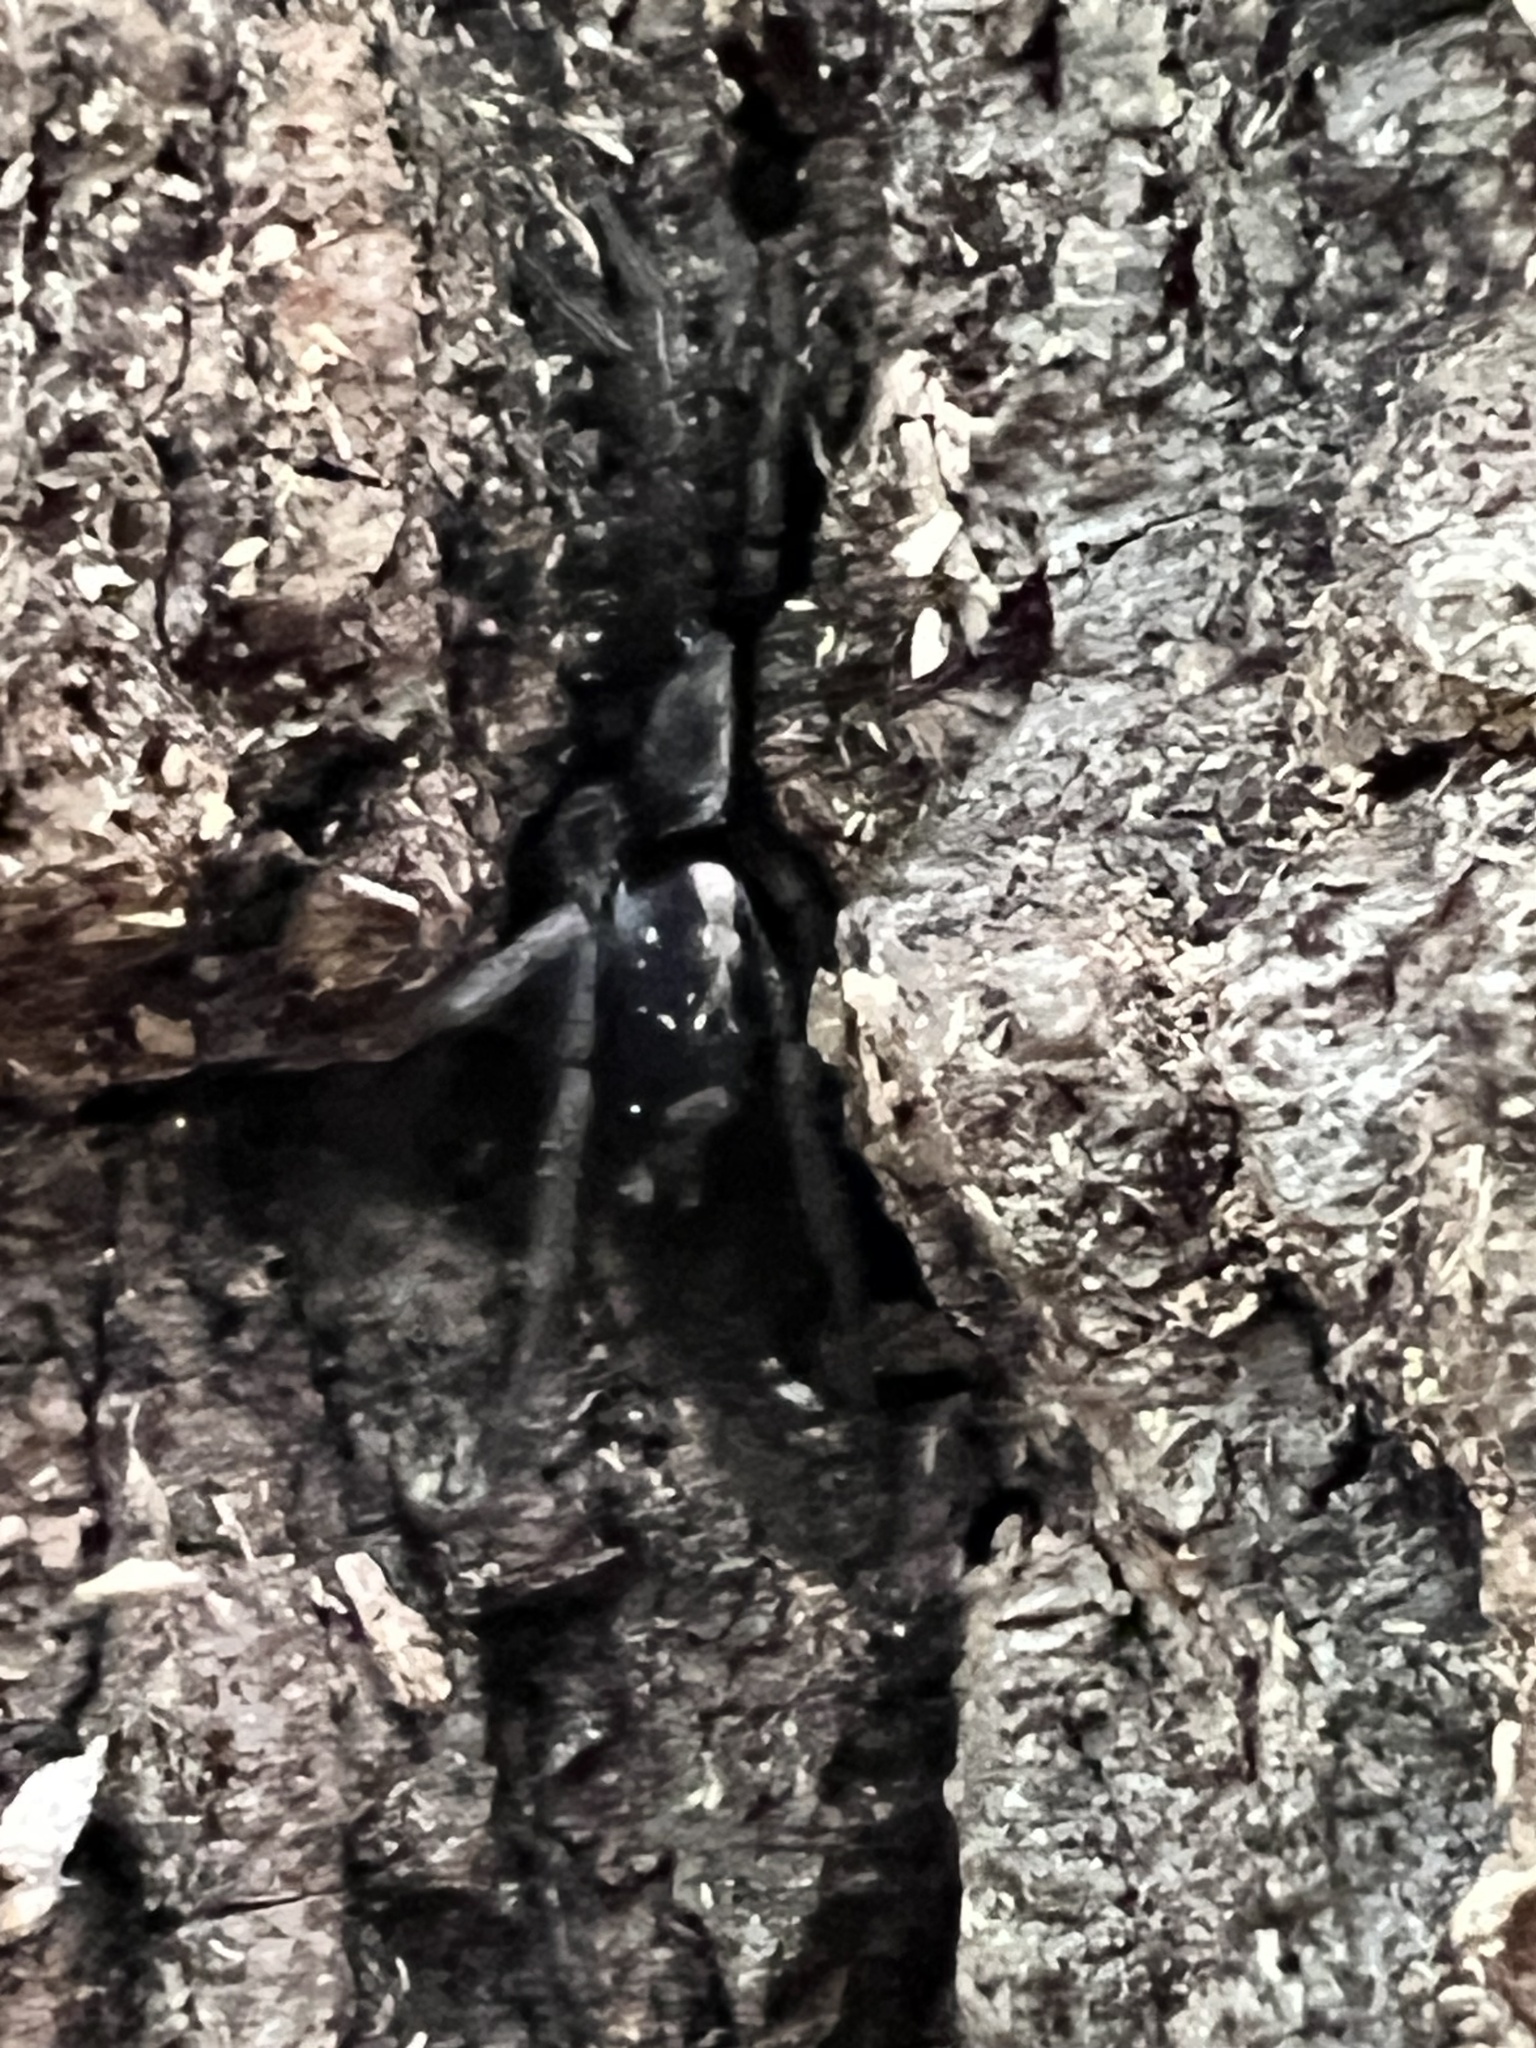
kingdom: Animalia
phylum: Arthropoda
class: Arachnida
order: Araneae
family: Gnaphosidae
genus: Herpyllus
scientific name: Herpyllus ecclesiasticus
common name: Eastern parson spider
